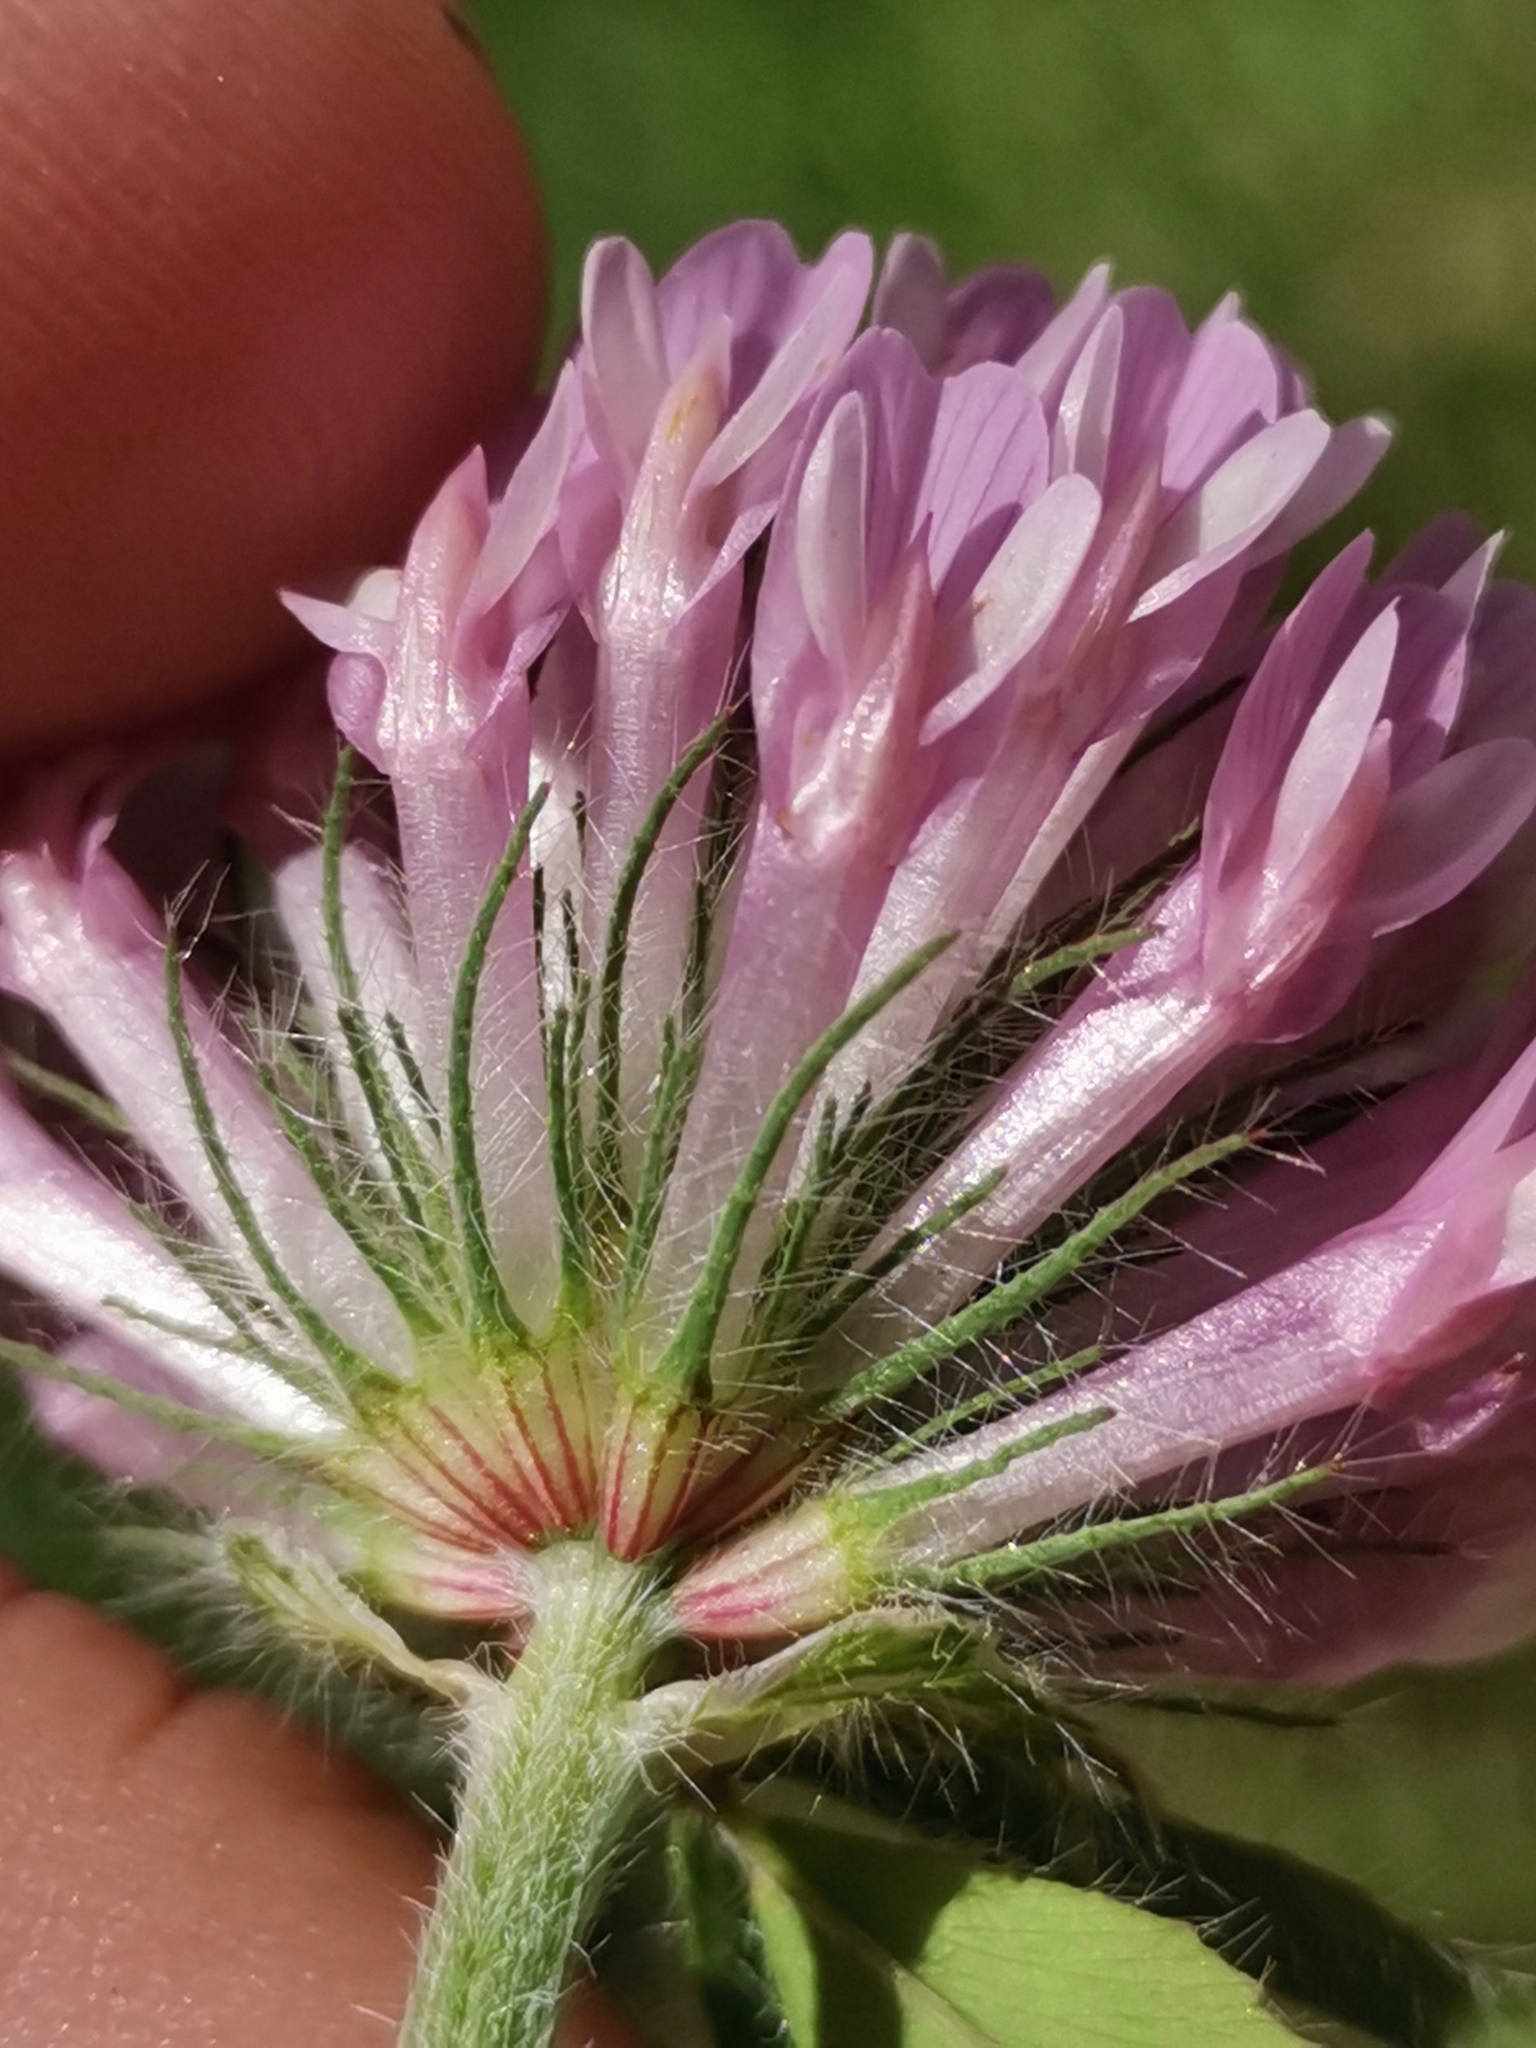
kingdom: Plantae
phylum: Tracheophyta
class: Magnoliopsida
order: Fabales
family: Fabaceae
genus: Trifolium
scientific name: Trifolium pratense
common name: Red clover
